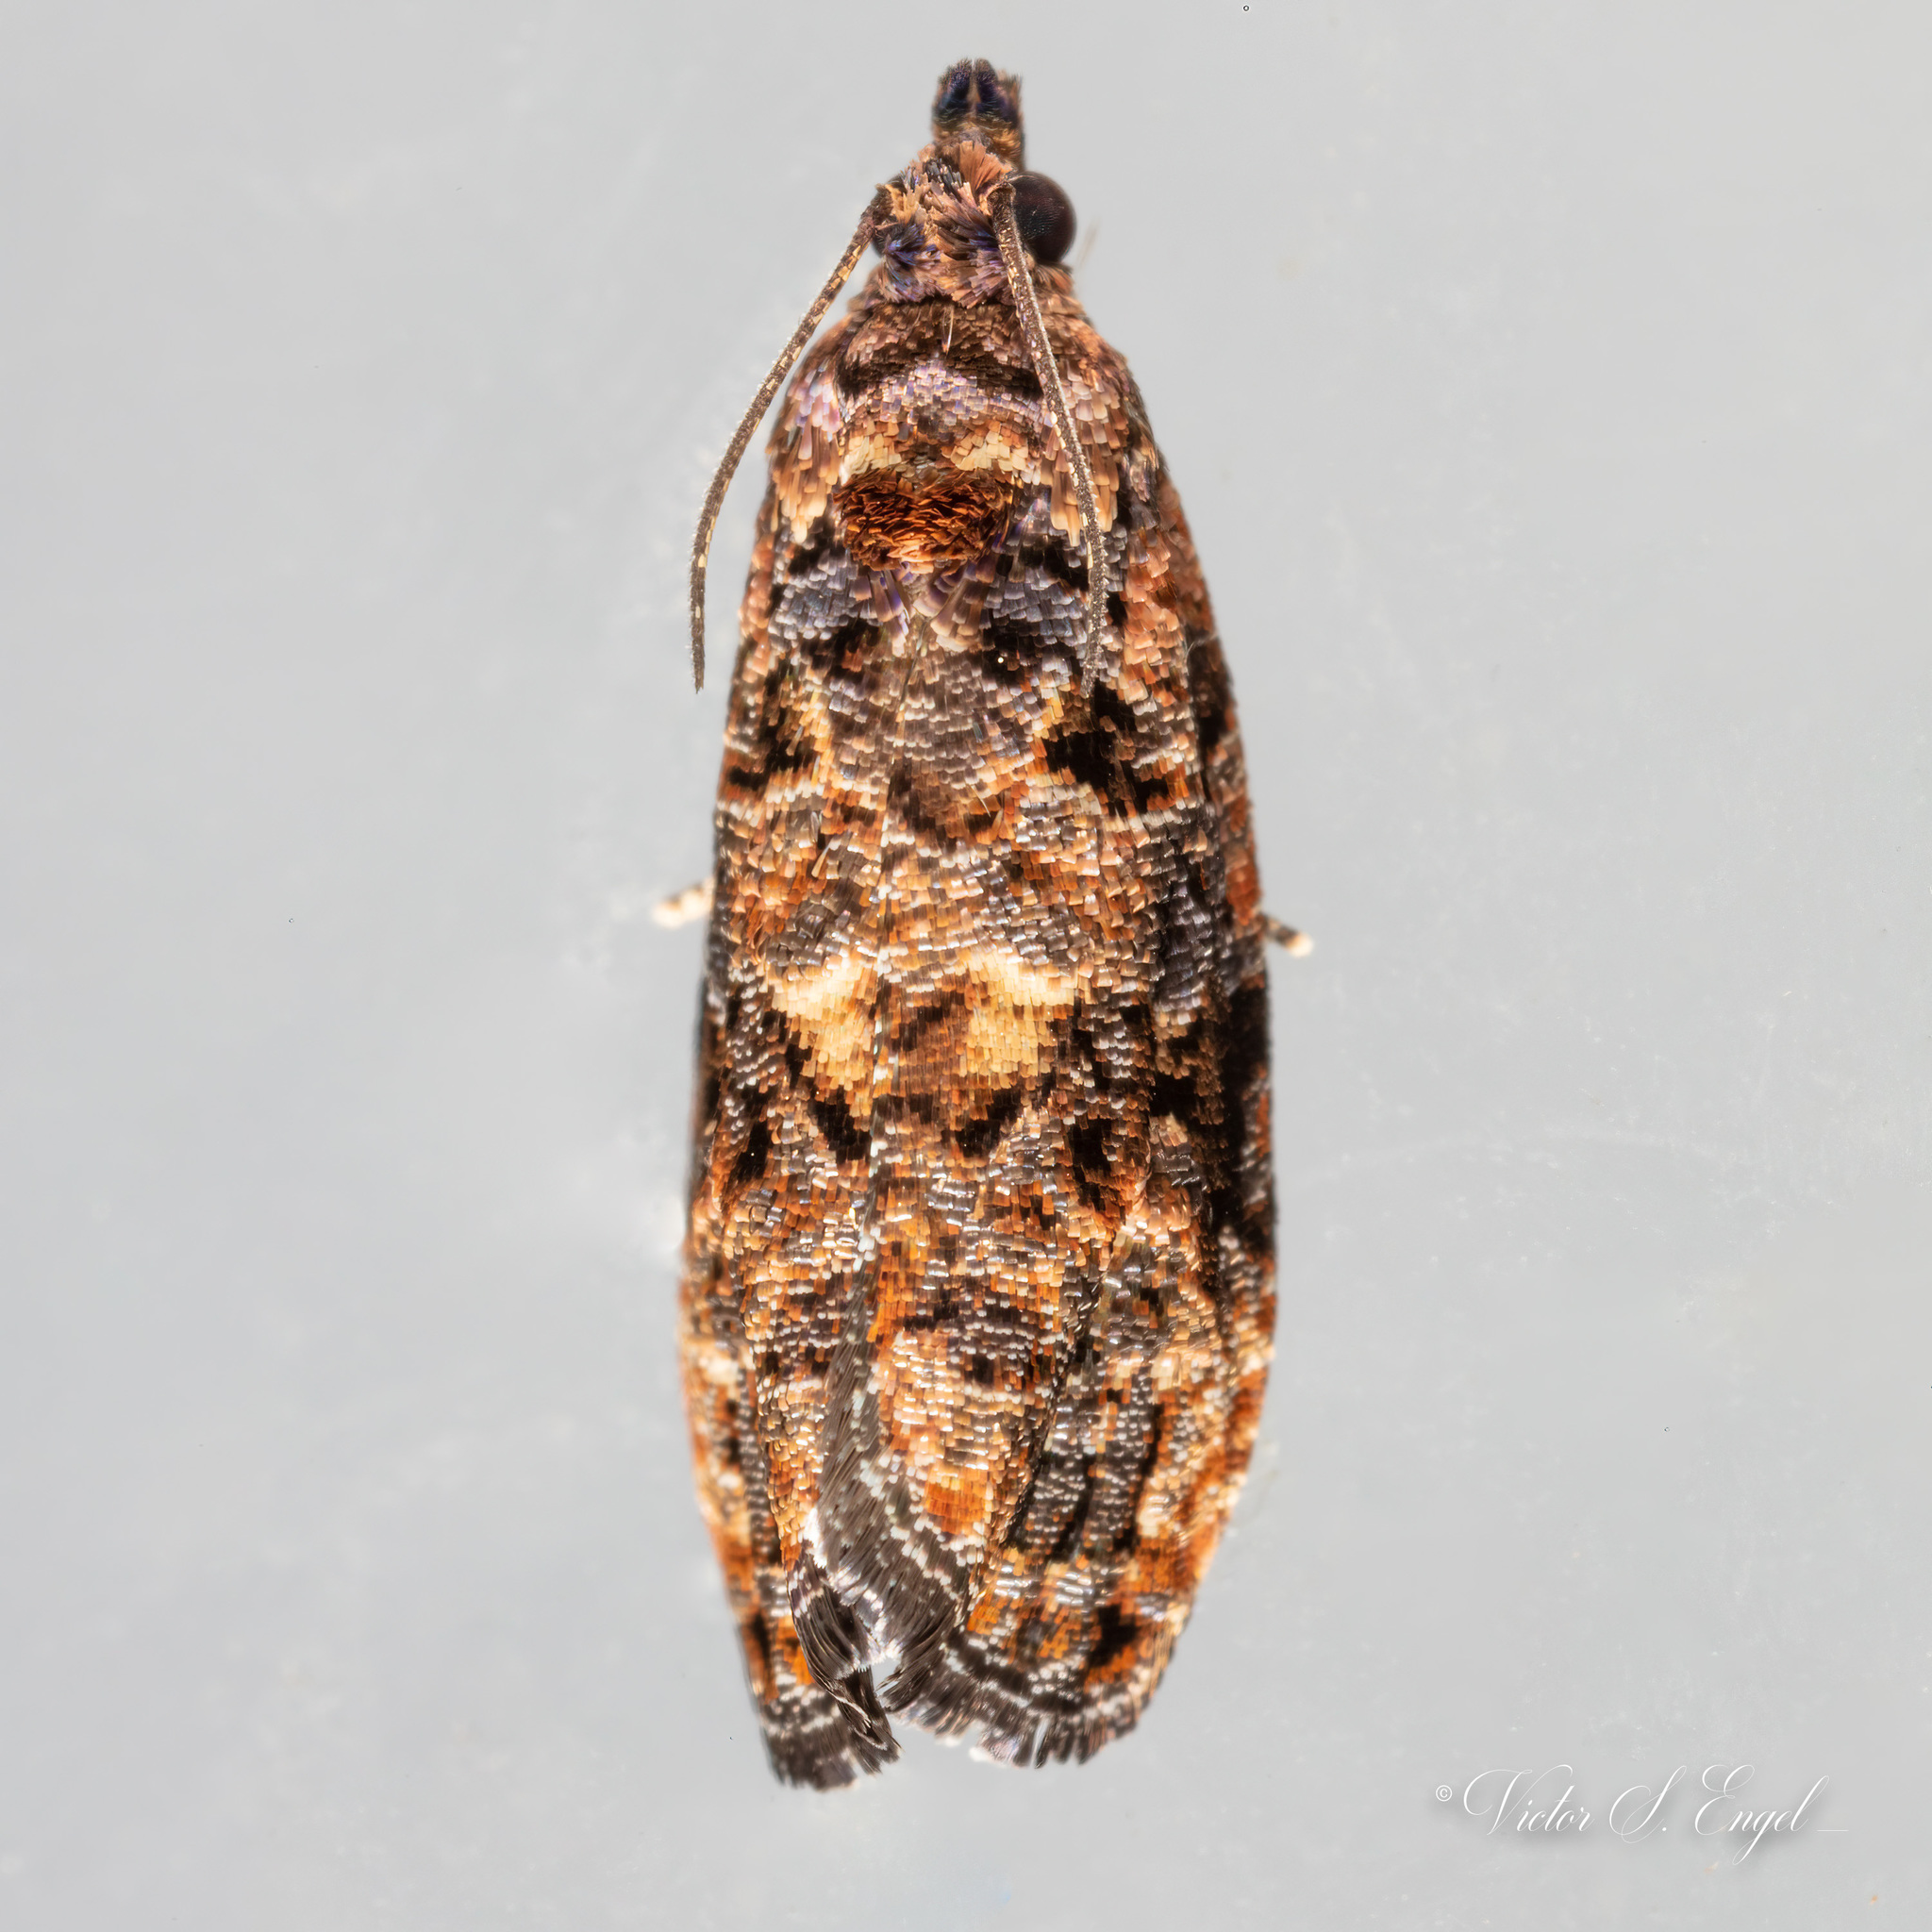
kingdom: Animalia
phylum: Arthropoda
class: Insecta
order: Lepidoptera
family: Tortricidae
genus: Endothenia
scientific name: Endothenia hebesana
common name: Verbena bud moth
